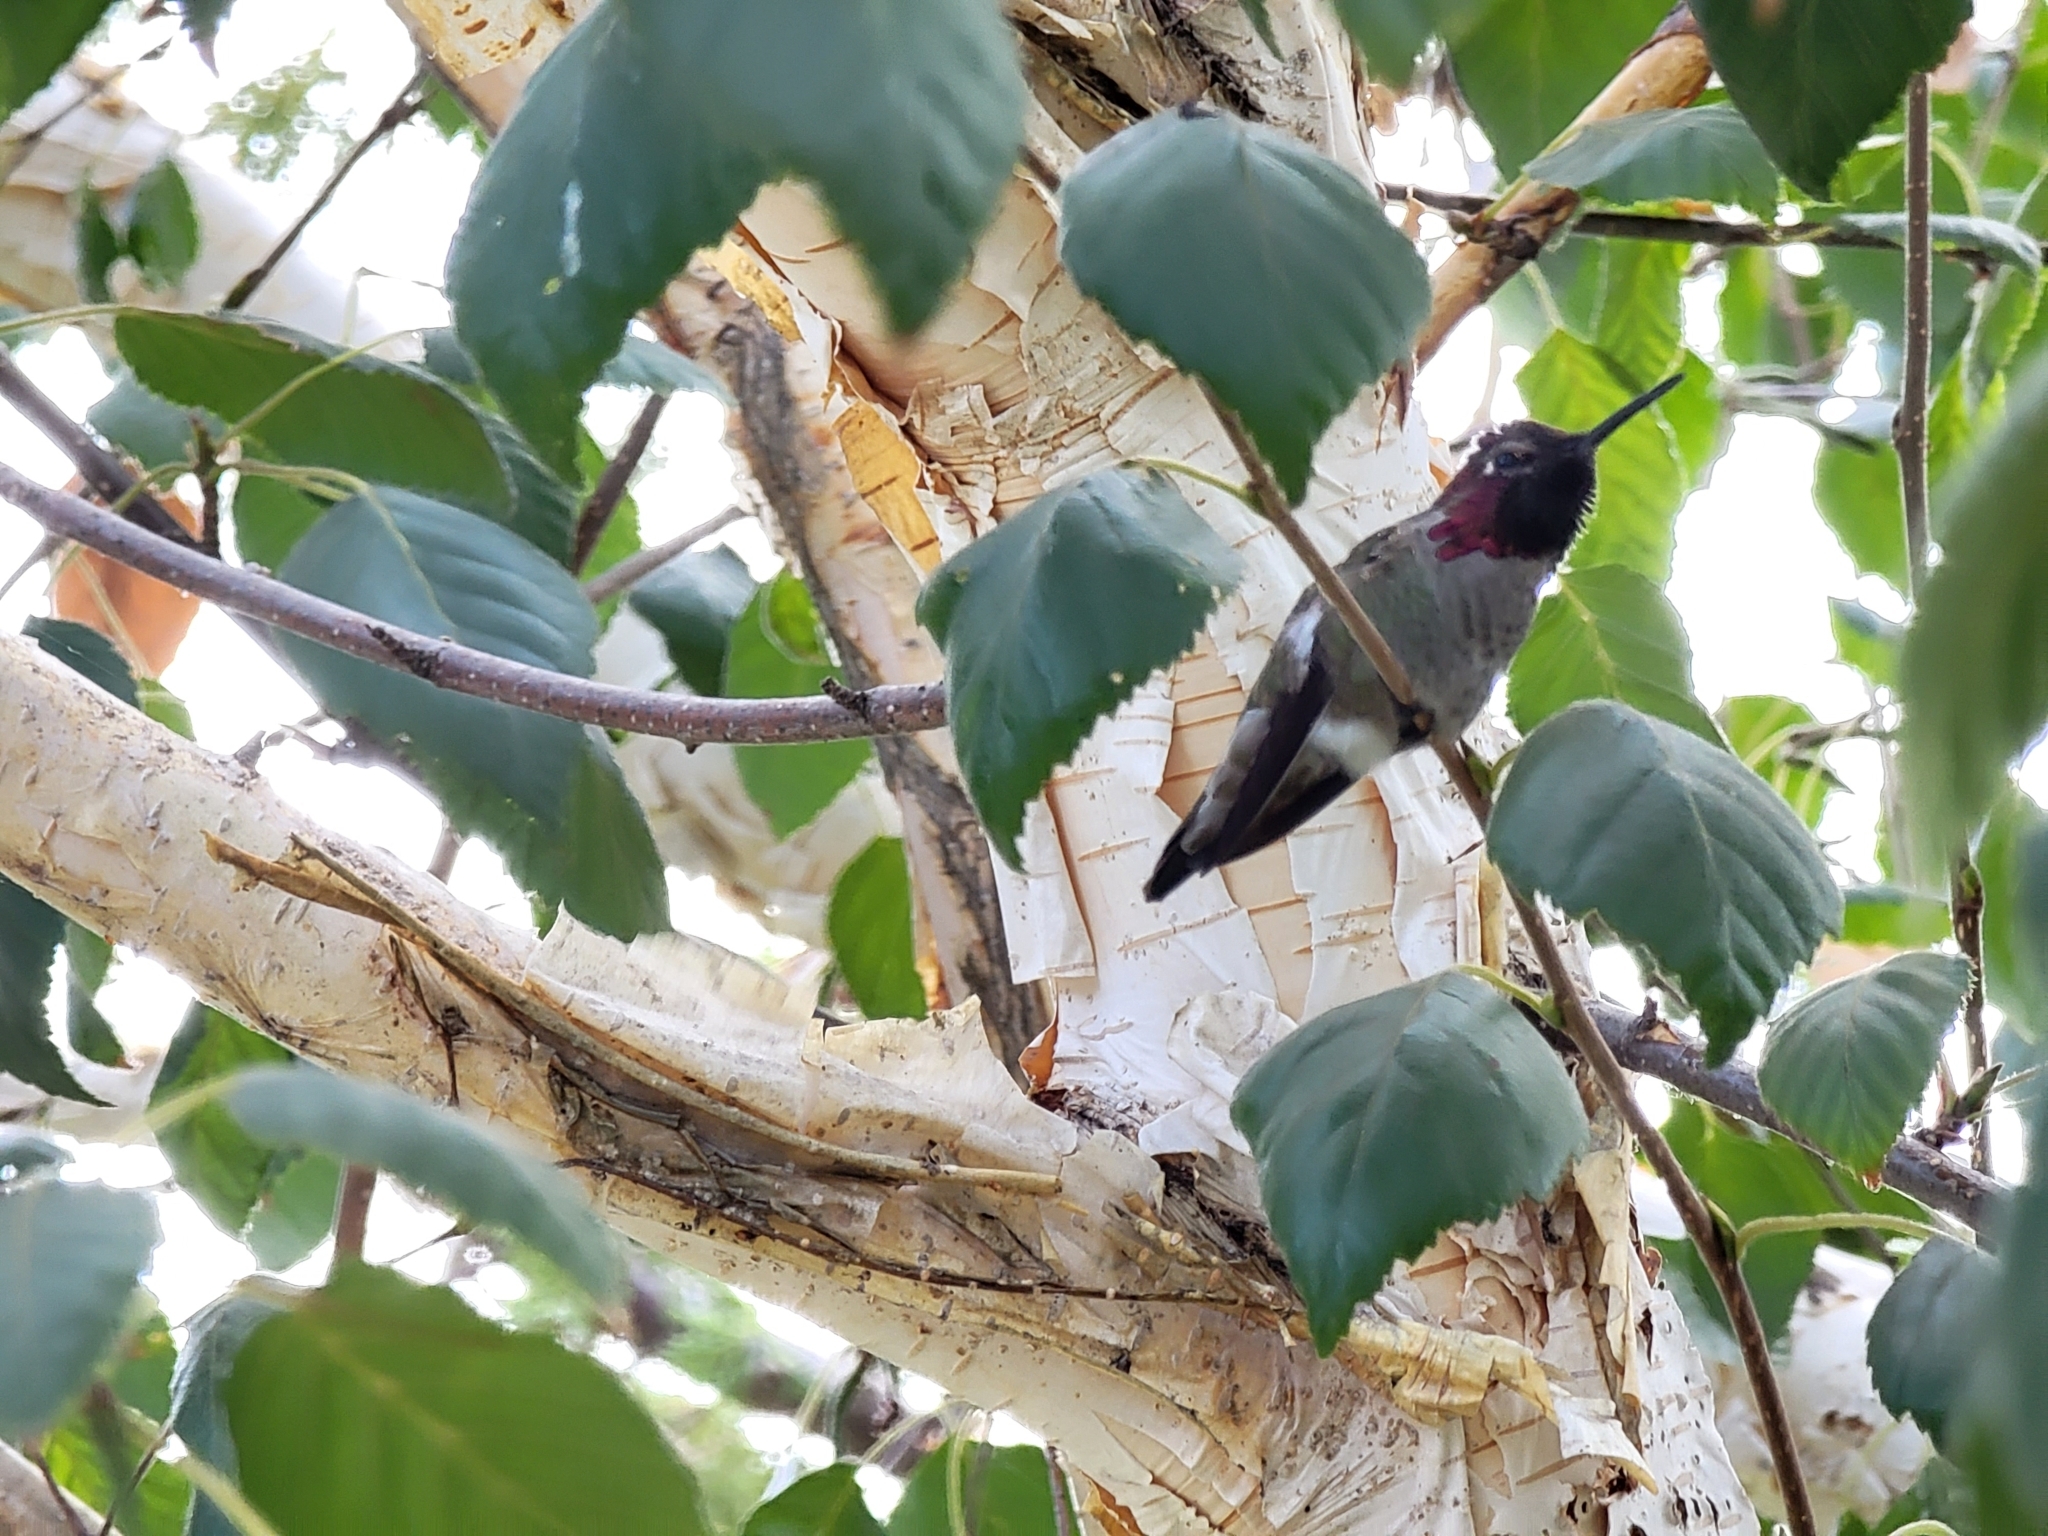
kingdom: Animalia
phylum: Chordata
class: Aves
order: Apodiformes
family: Trochilidae
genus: Calypte
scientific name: Calypte anna
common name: Anna's hummingbird
